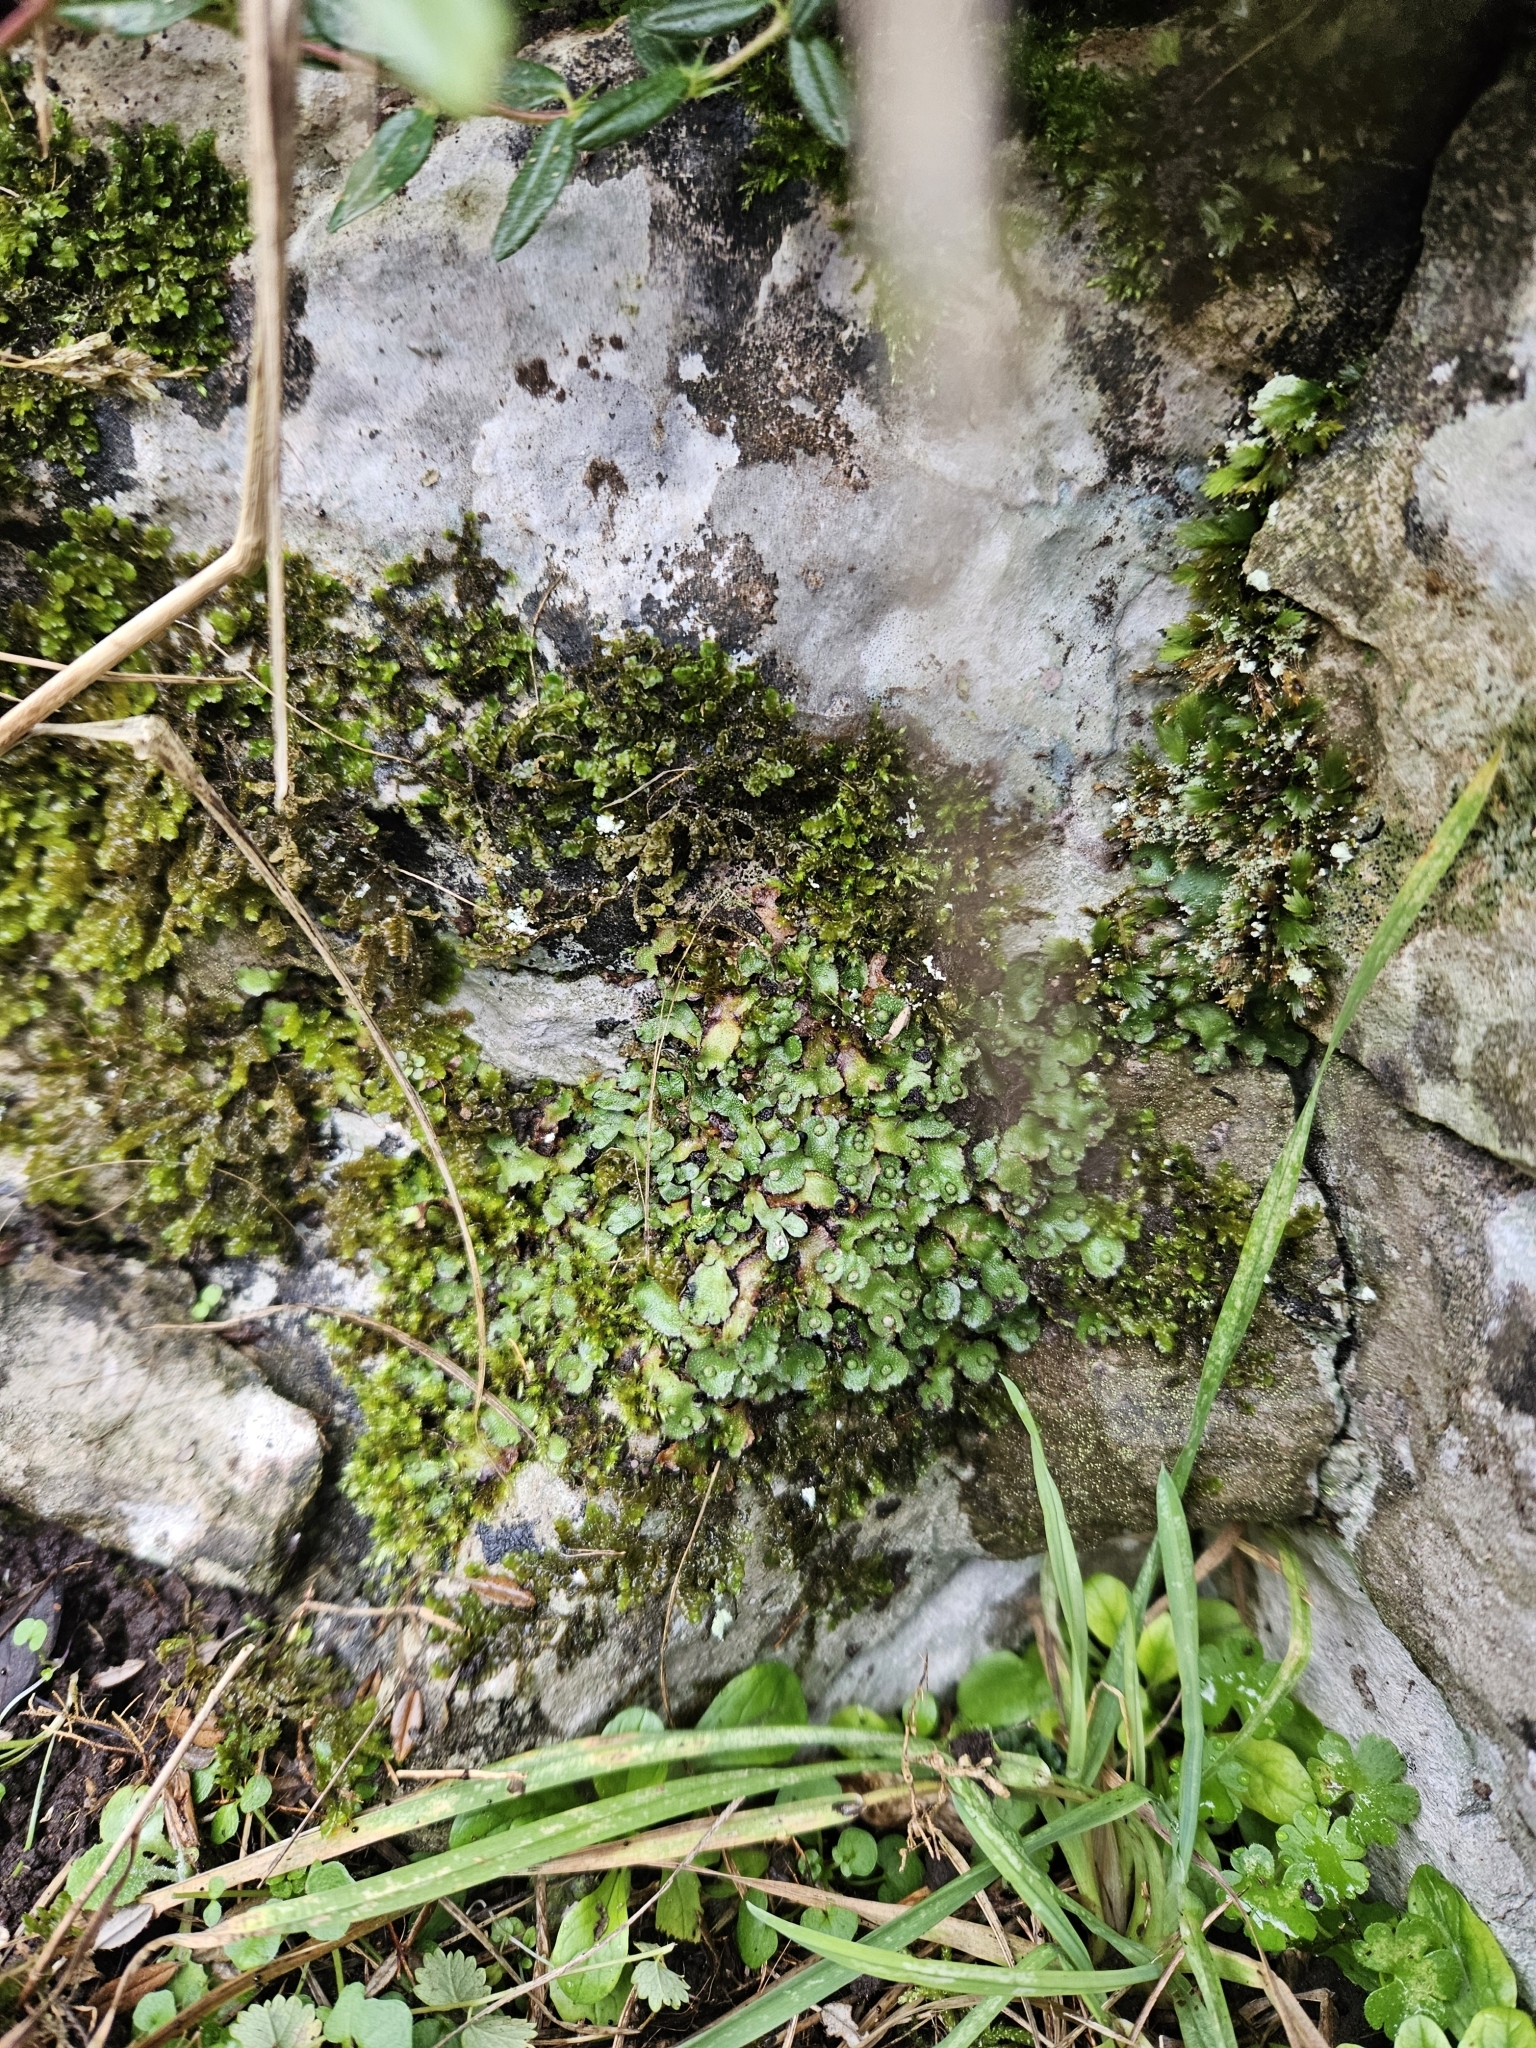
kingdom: Plantae
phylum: Marchantiophyta
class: Marchantiopsida
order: Marchantiales
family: Aytoniaceae
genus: Reboulia
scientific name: Reboulia hemisphaerica
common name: Purple-margined liverwort
